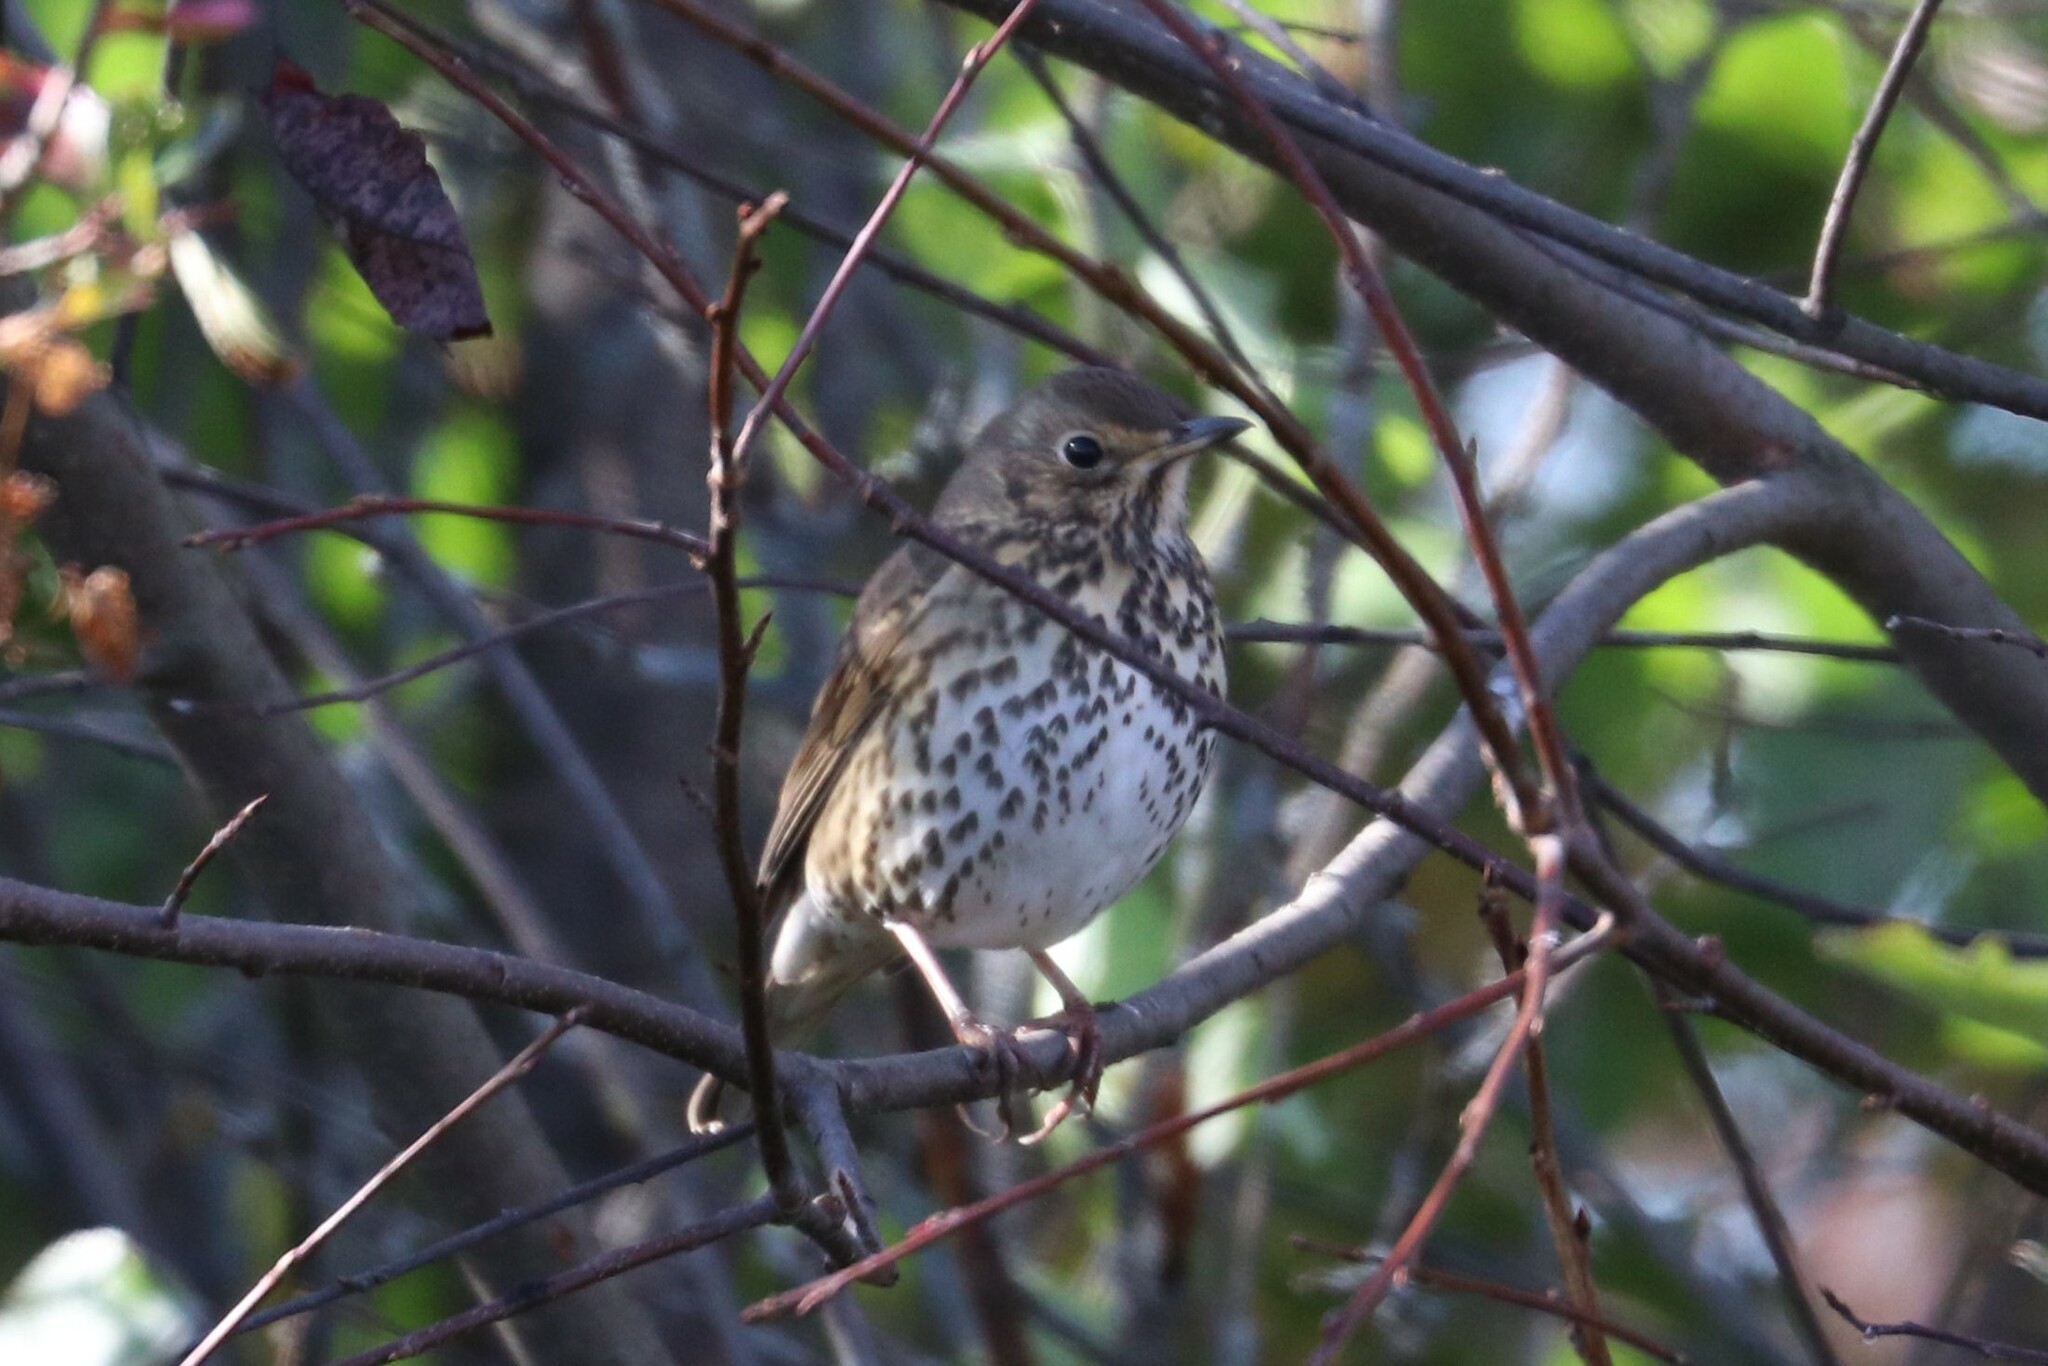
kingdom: Animalia
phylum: Chordata
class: Aves
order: Passeriformes
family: Turdidae
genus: Turdus
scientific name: Turdus philomelos
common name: Song thrush
